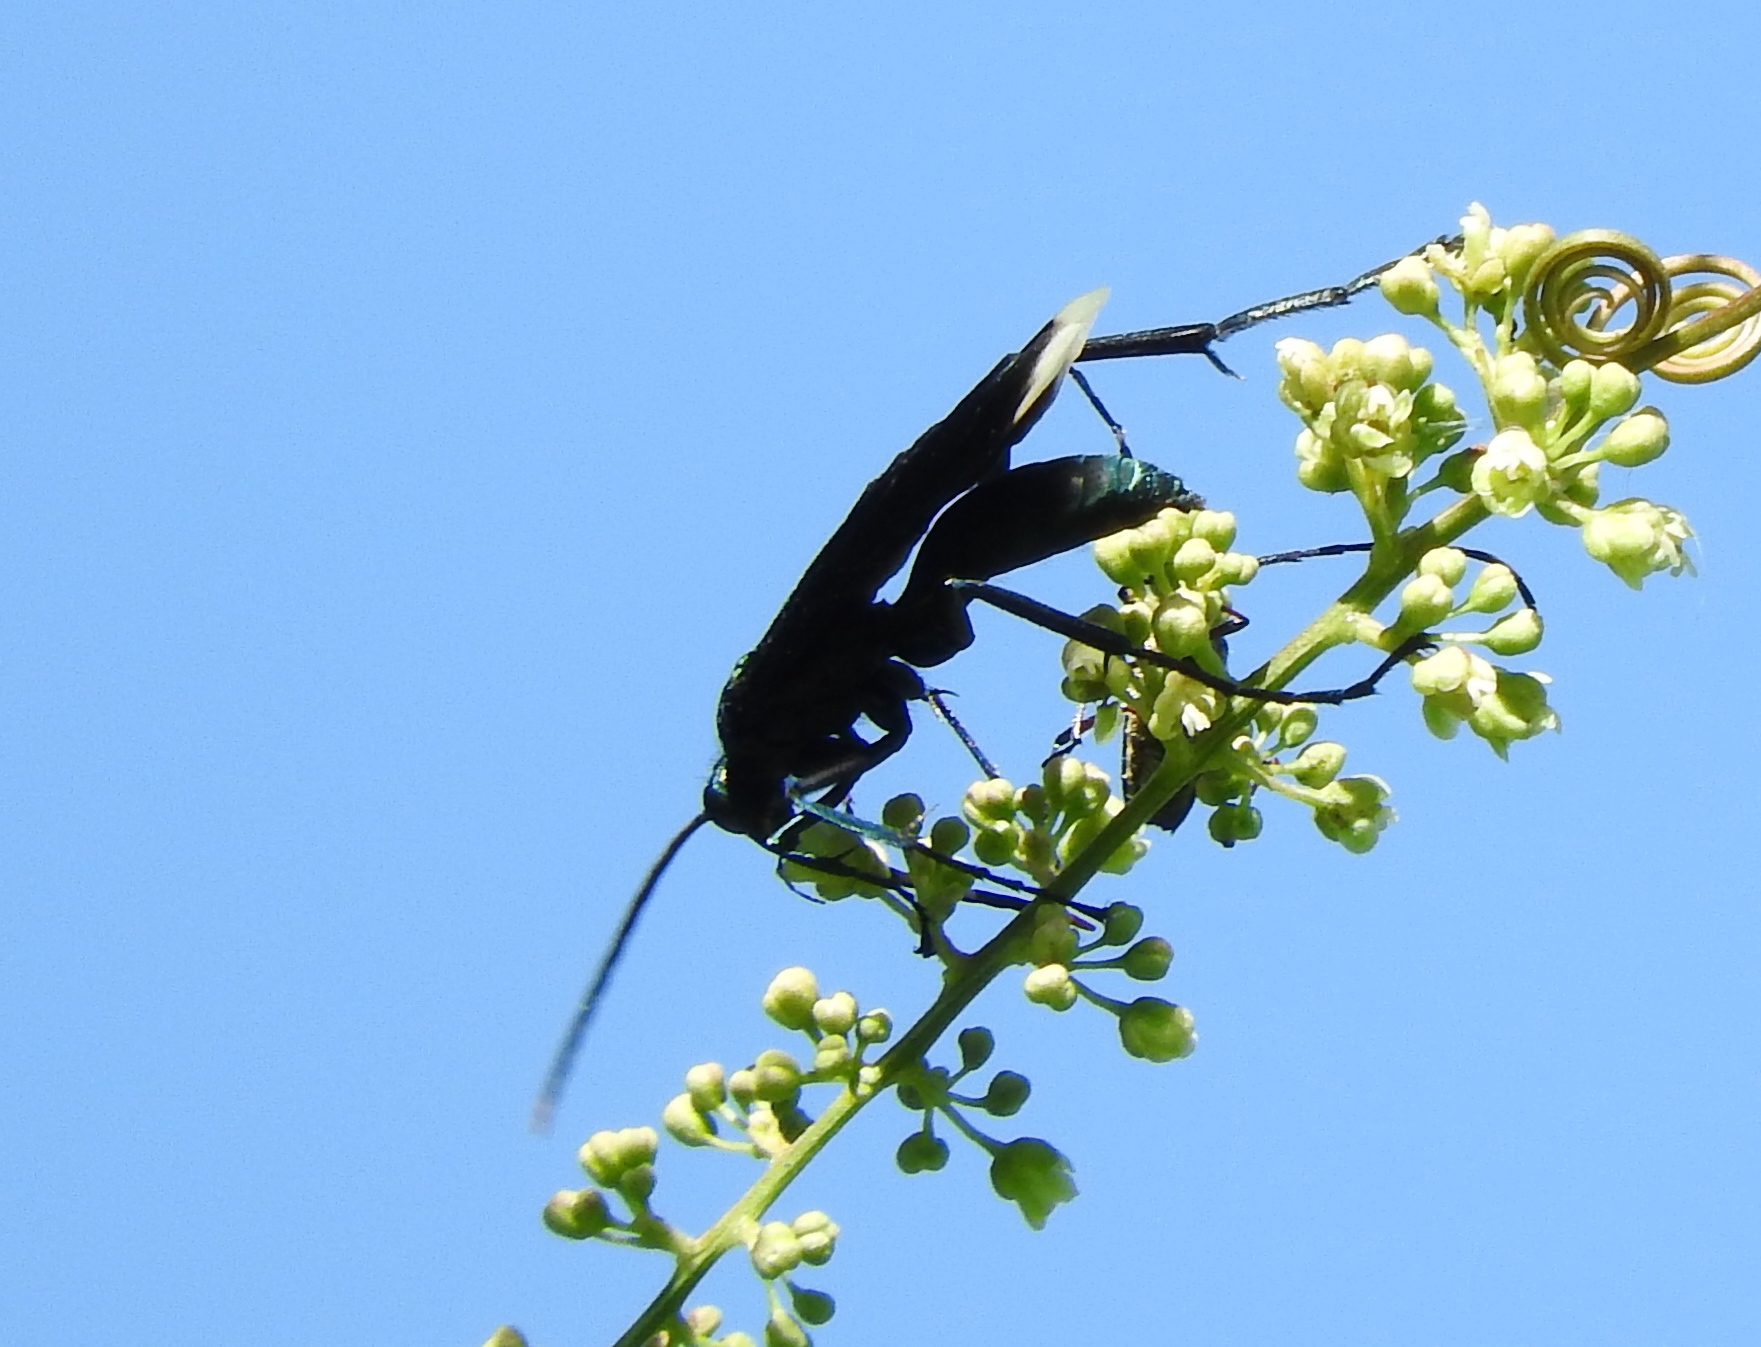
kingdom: Animalia
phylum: Arthropoda
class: Insecta
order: Hymenoptera
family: Pompilidae
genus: Pepsis
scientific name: Pepsis
